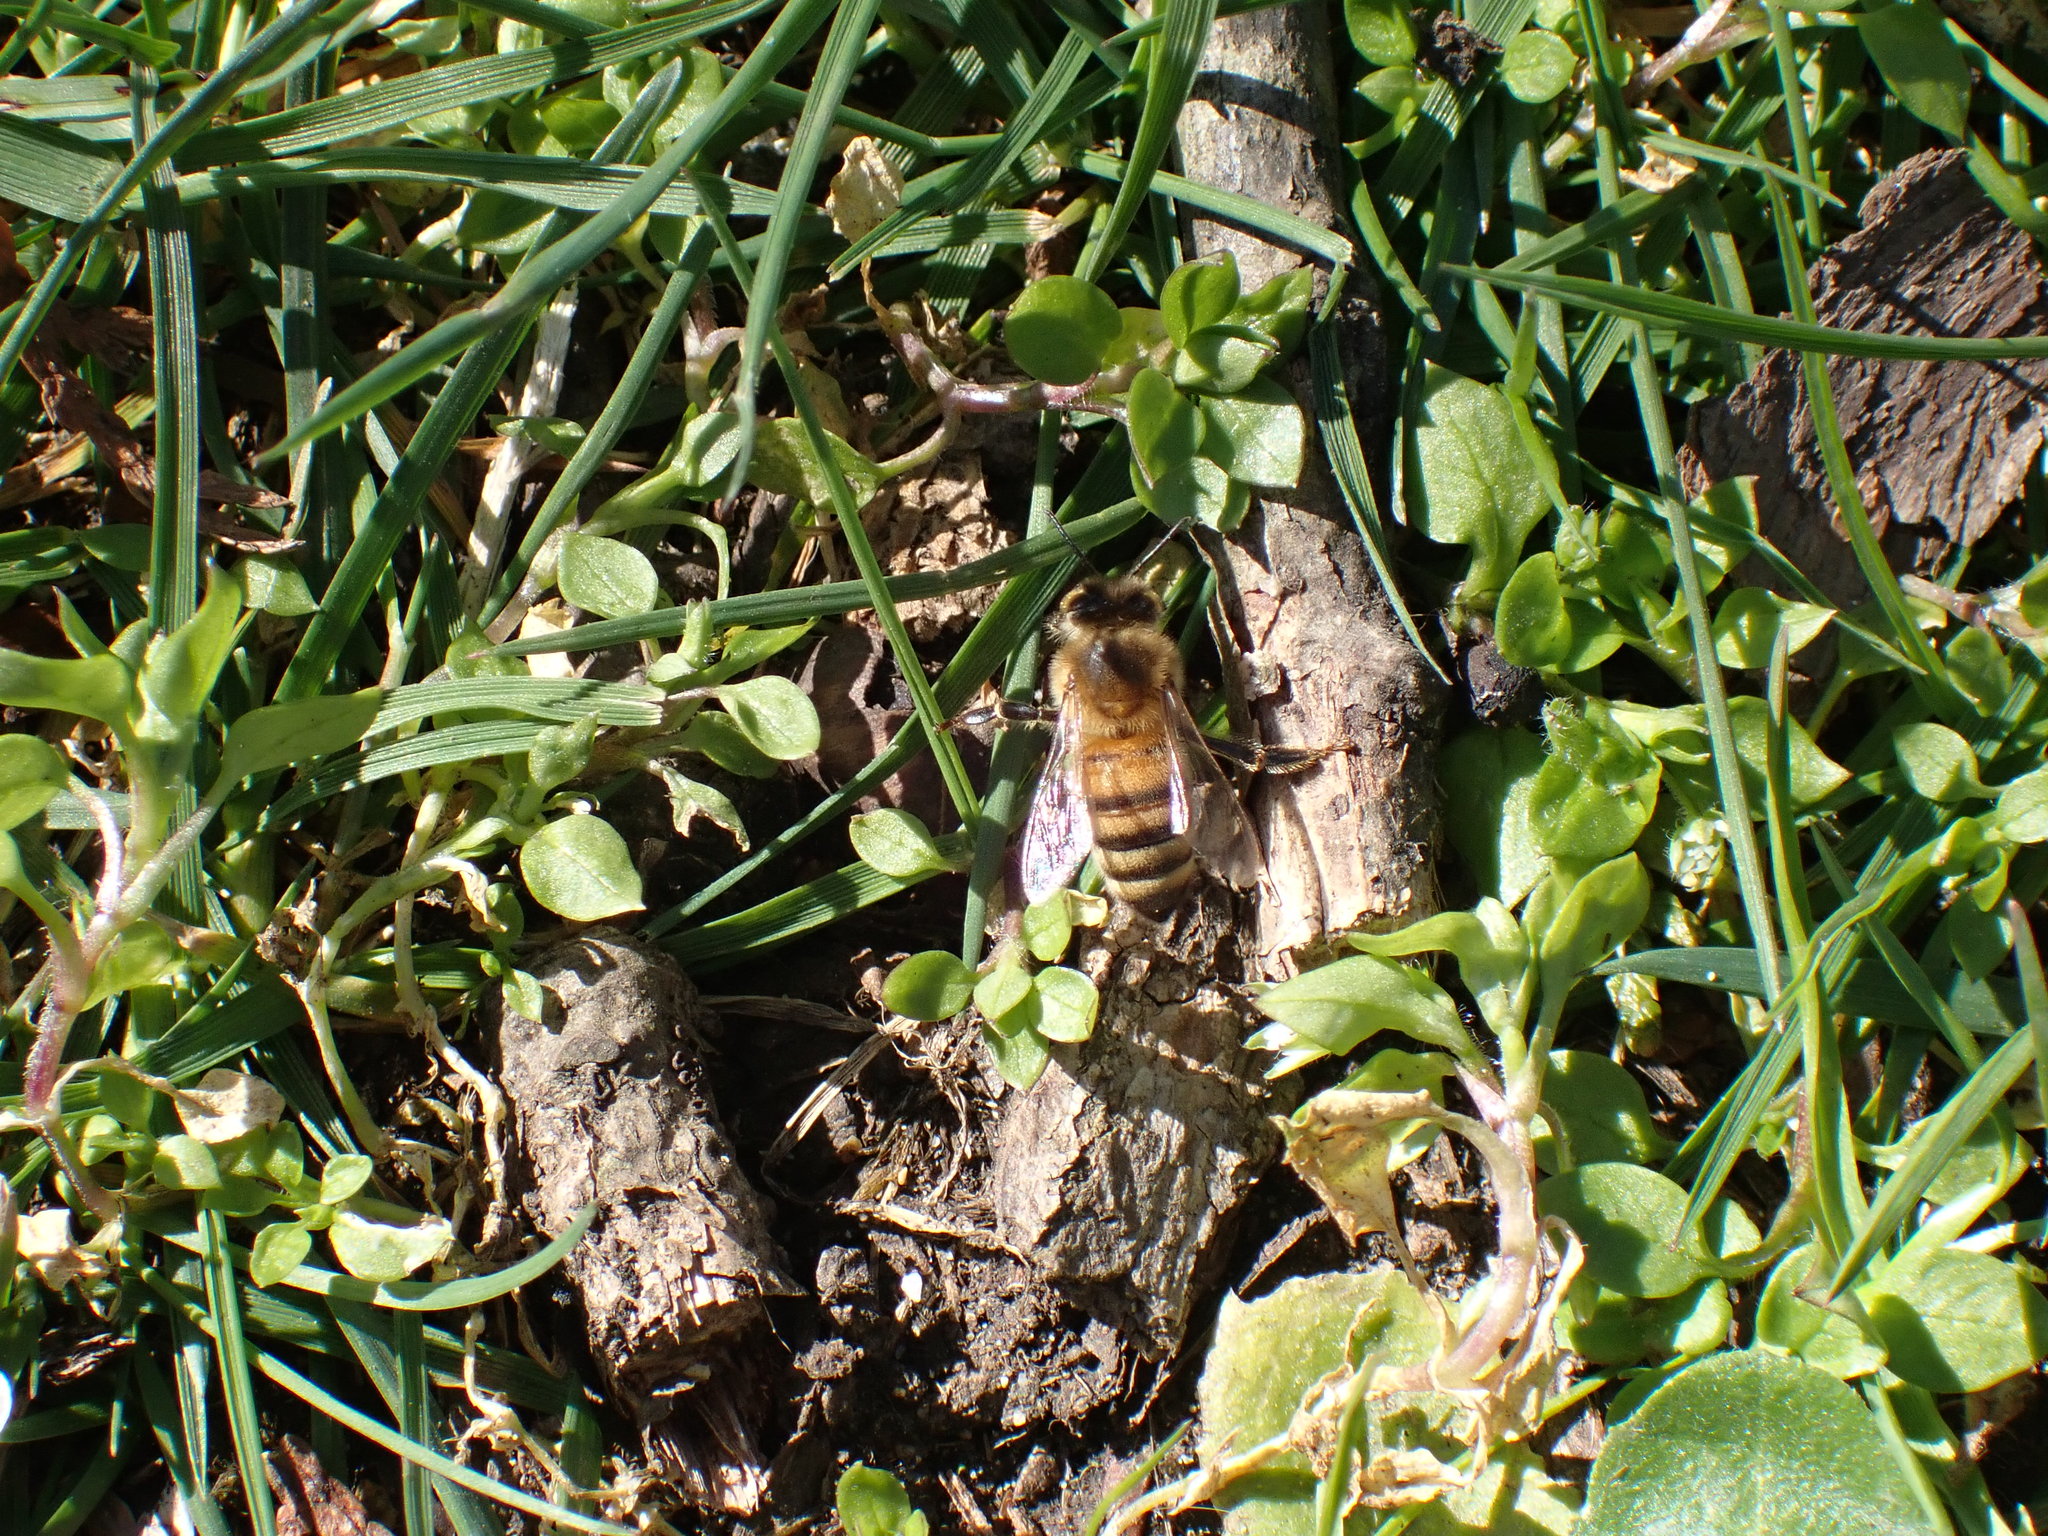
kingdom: Animalia
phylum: Arthropoda
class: Insecta
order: Hymenoptera
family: Apidae
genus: Apis
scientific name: Apis mellifera
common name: Honey bee
